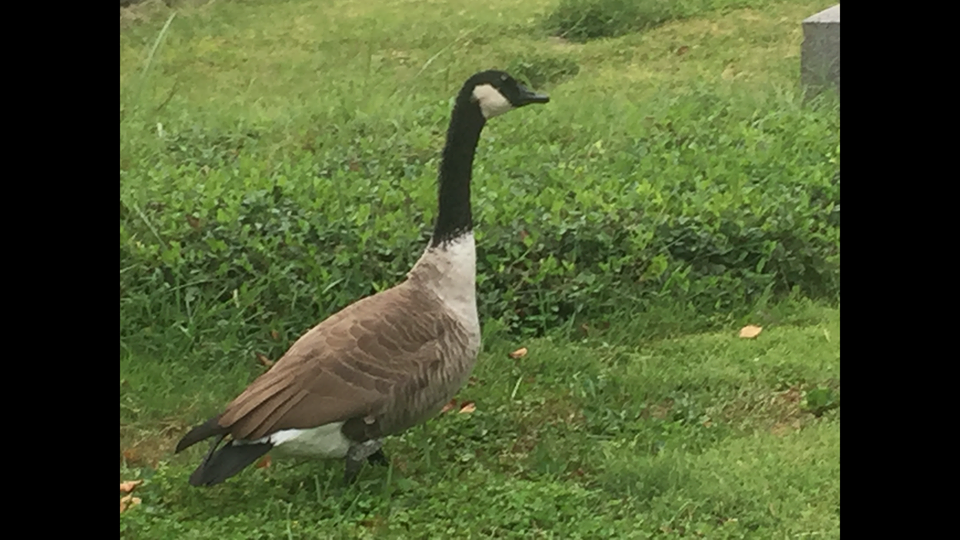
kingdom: Animalia
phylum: Chordata
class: Aves
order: Anseriformes
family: Anatidae
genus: Branta
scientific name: Branta canadensis
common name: Canada goose
